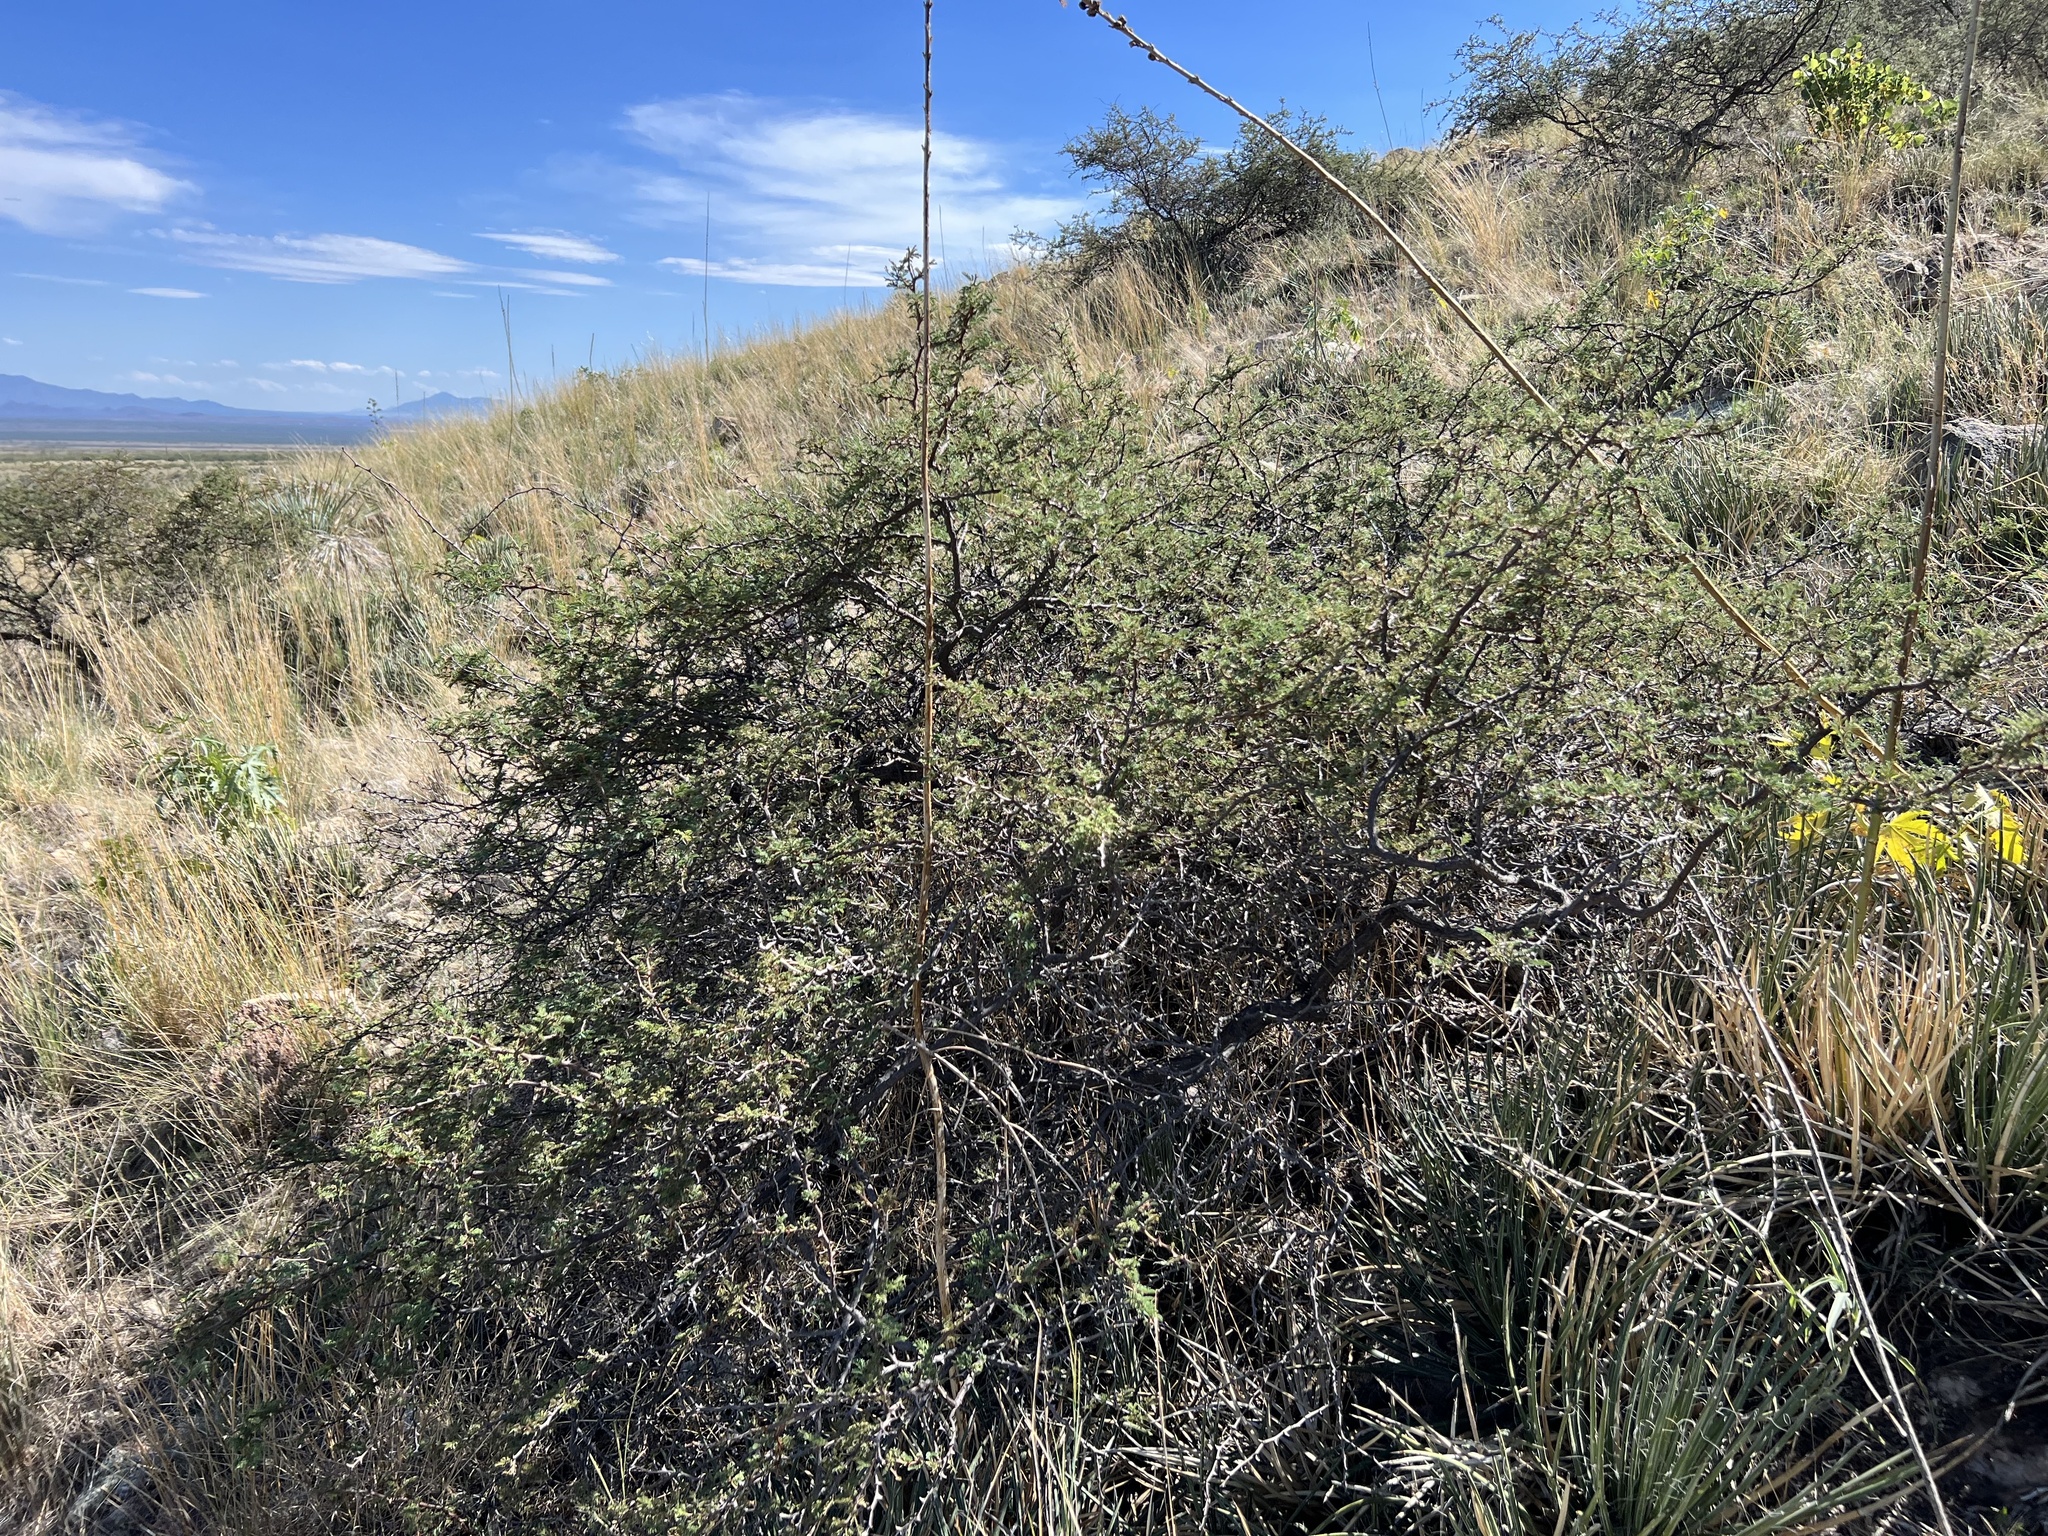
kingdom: Plantae
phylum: Tracheophyta
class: Magnoliopsida
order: Fabales
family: Fabaceae
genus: Mimosa
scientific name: Mimosa aculeaticarpa
